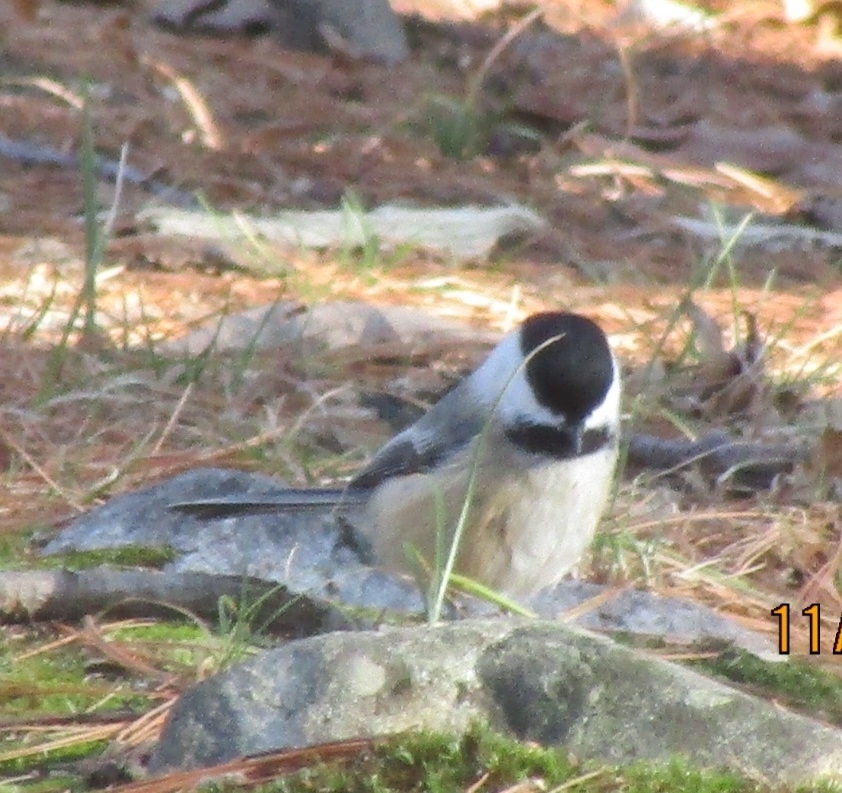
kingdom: Animalia
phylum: Chordata
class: Aves
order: Passeriformes
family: Paridae
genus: Poecile
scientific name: Poecile atricapillus
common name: Black-capped chickadee
